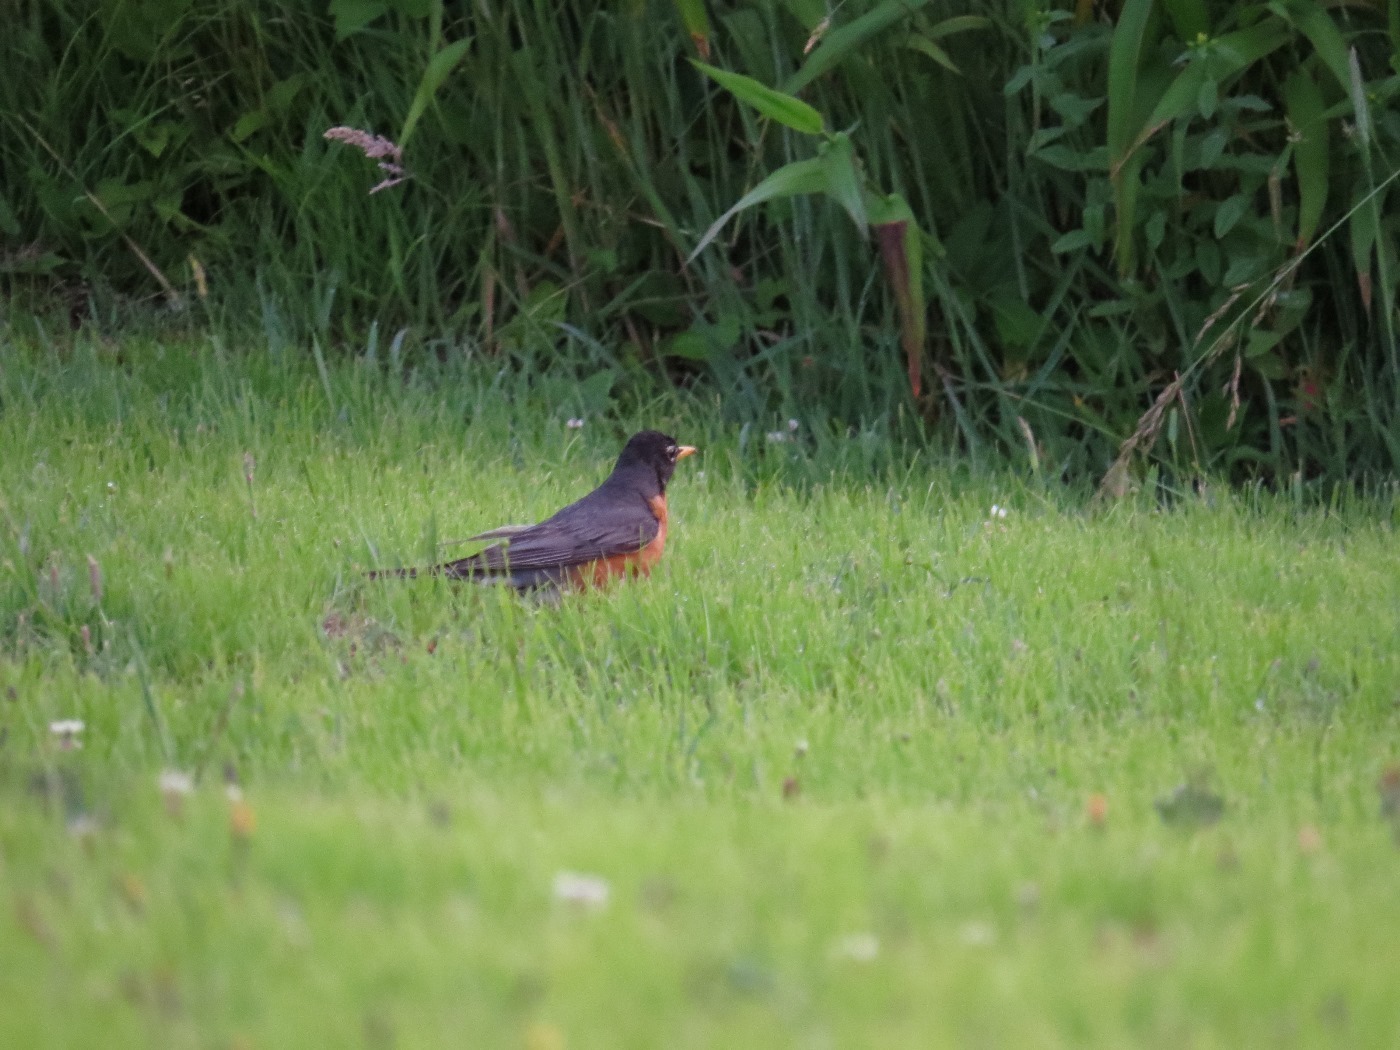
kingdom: Animalia
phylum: Chordata
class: Aves
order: Passeriformes
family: Turdidae
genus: Turdus
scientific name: Turdus migratorius
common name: American robin
